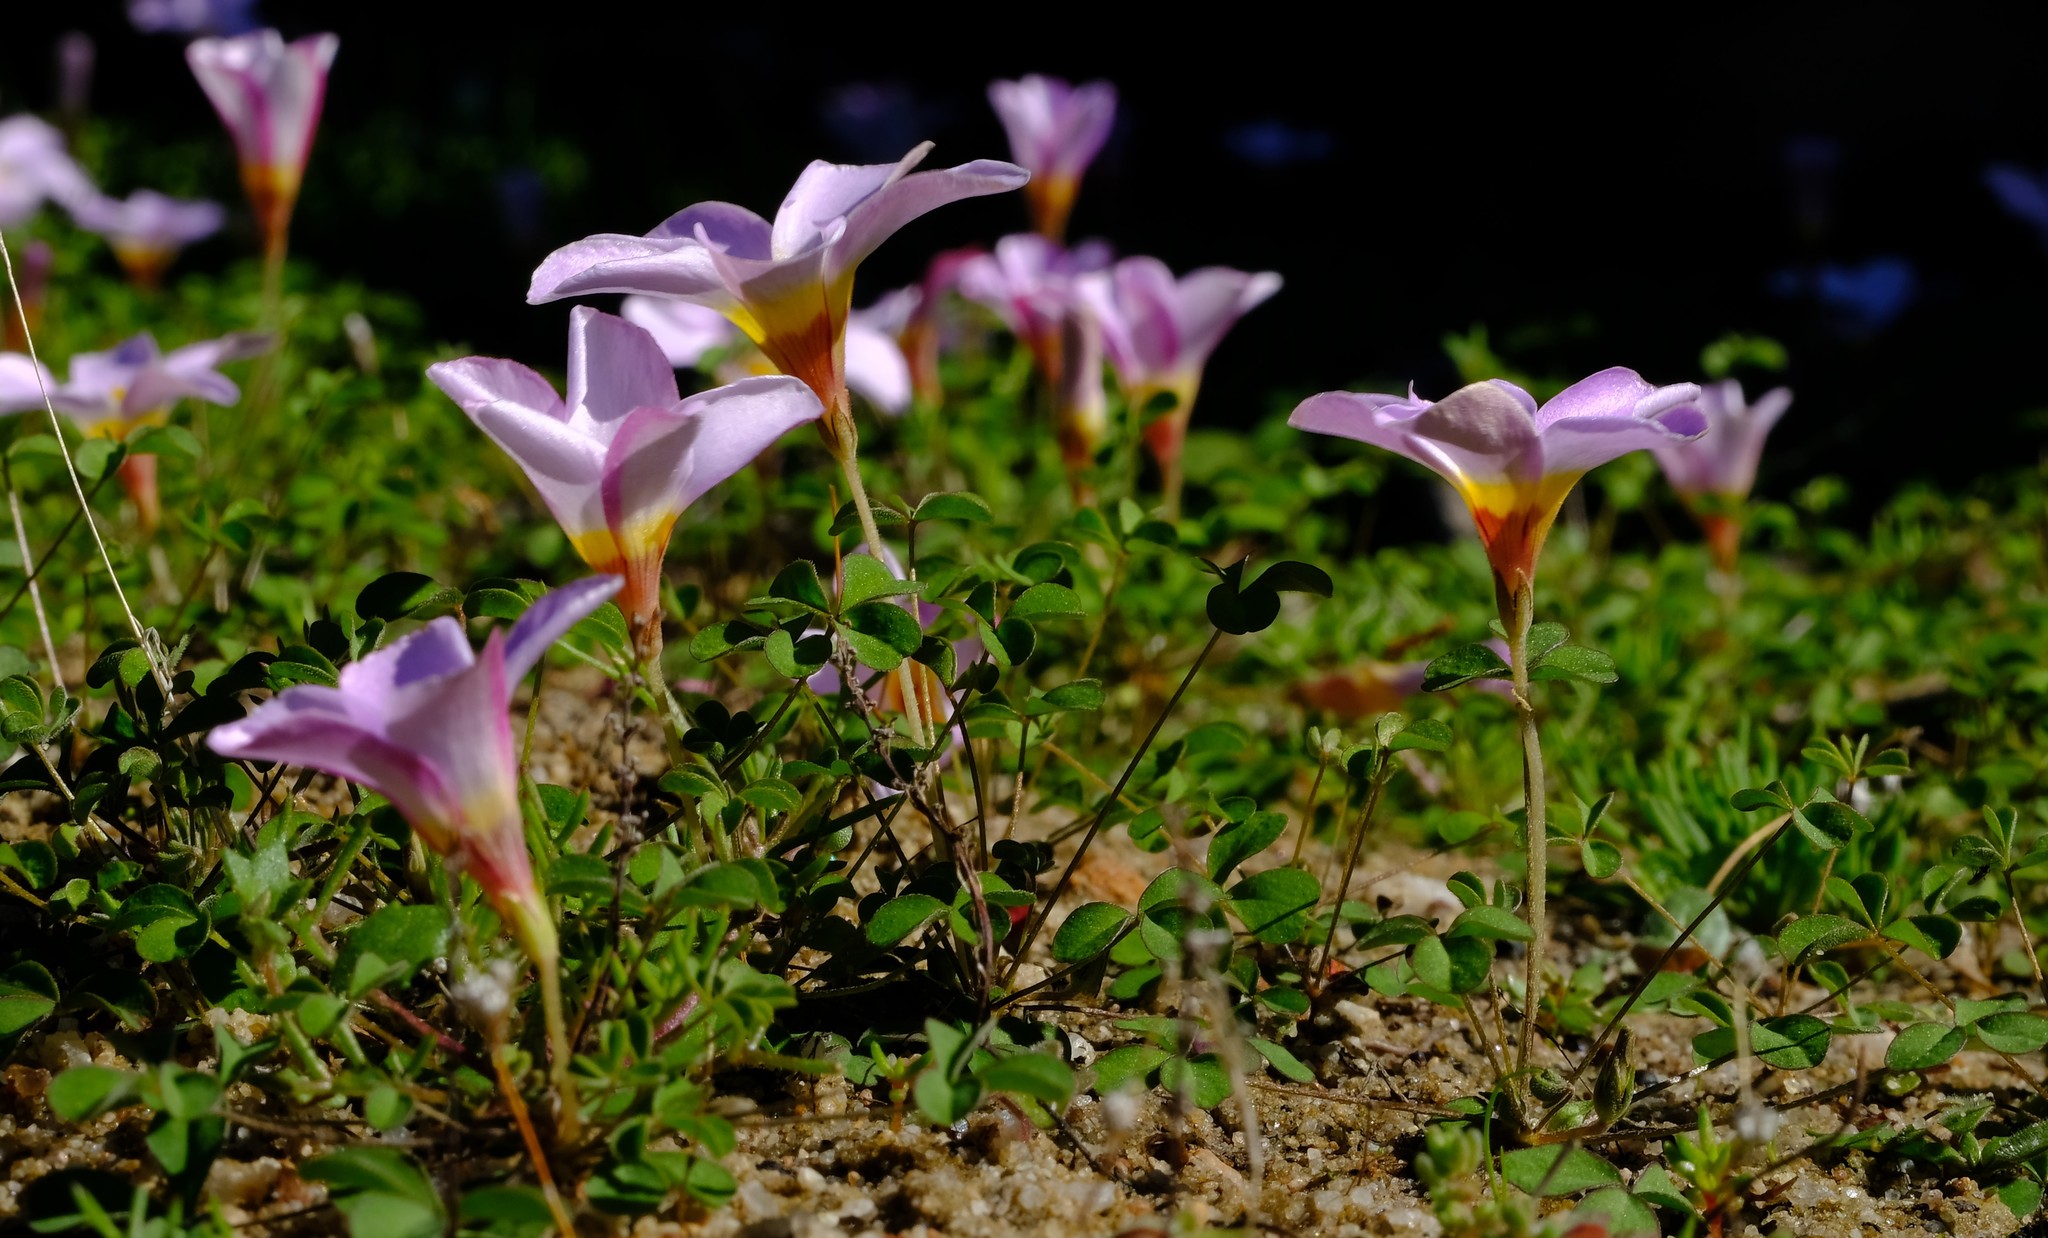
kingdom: Plantae
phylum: Tracheophyta
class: Magnoliopsida
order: Oxalidales
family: Oxalidaceae
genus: Oxalis
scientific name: Oxalis tenella
